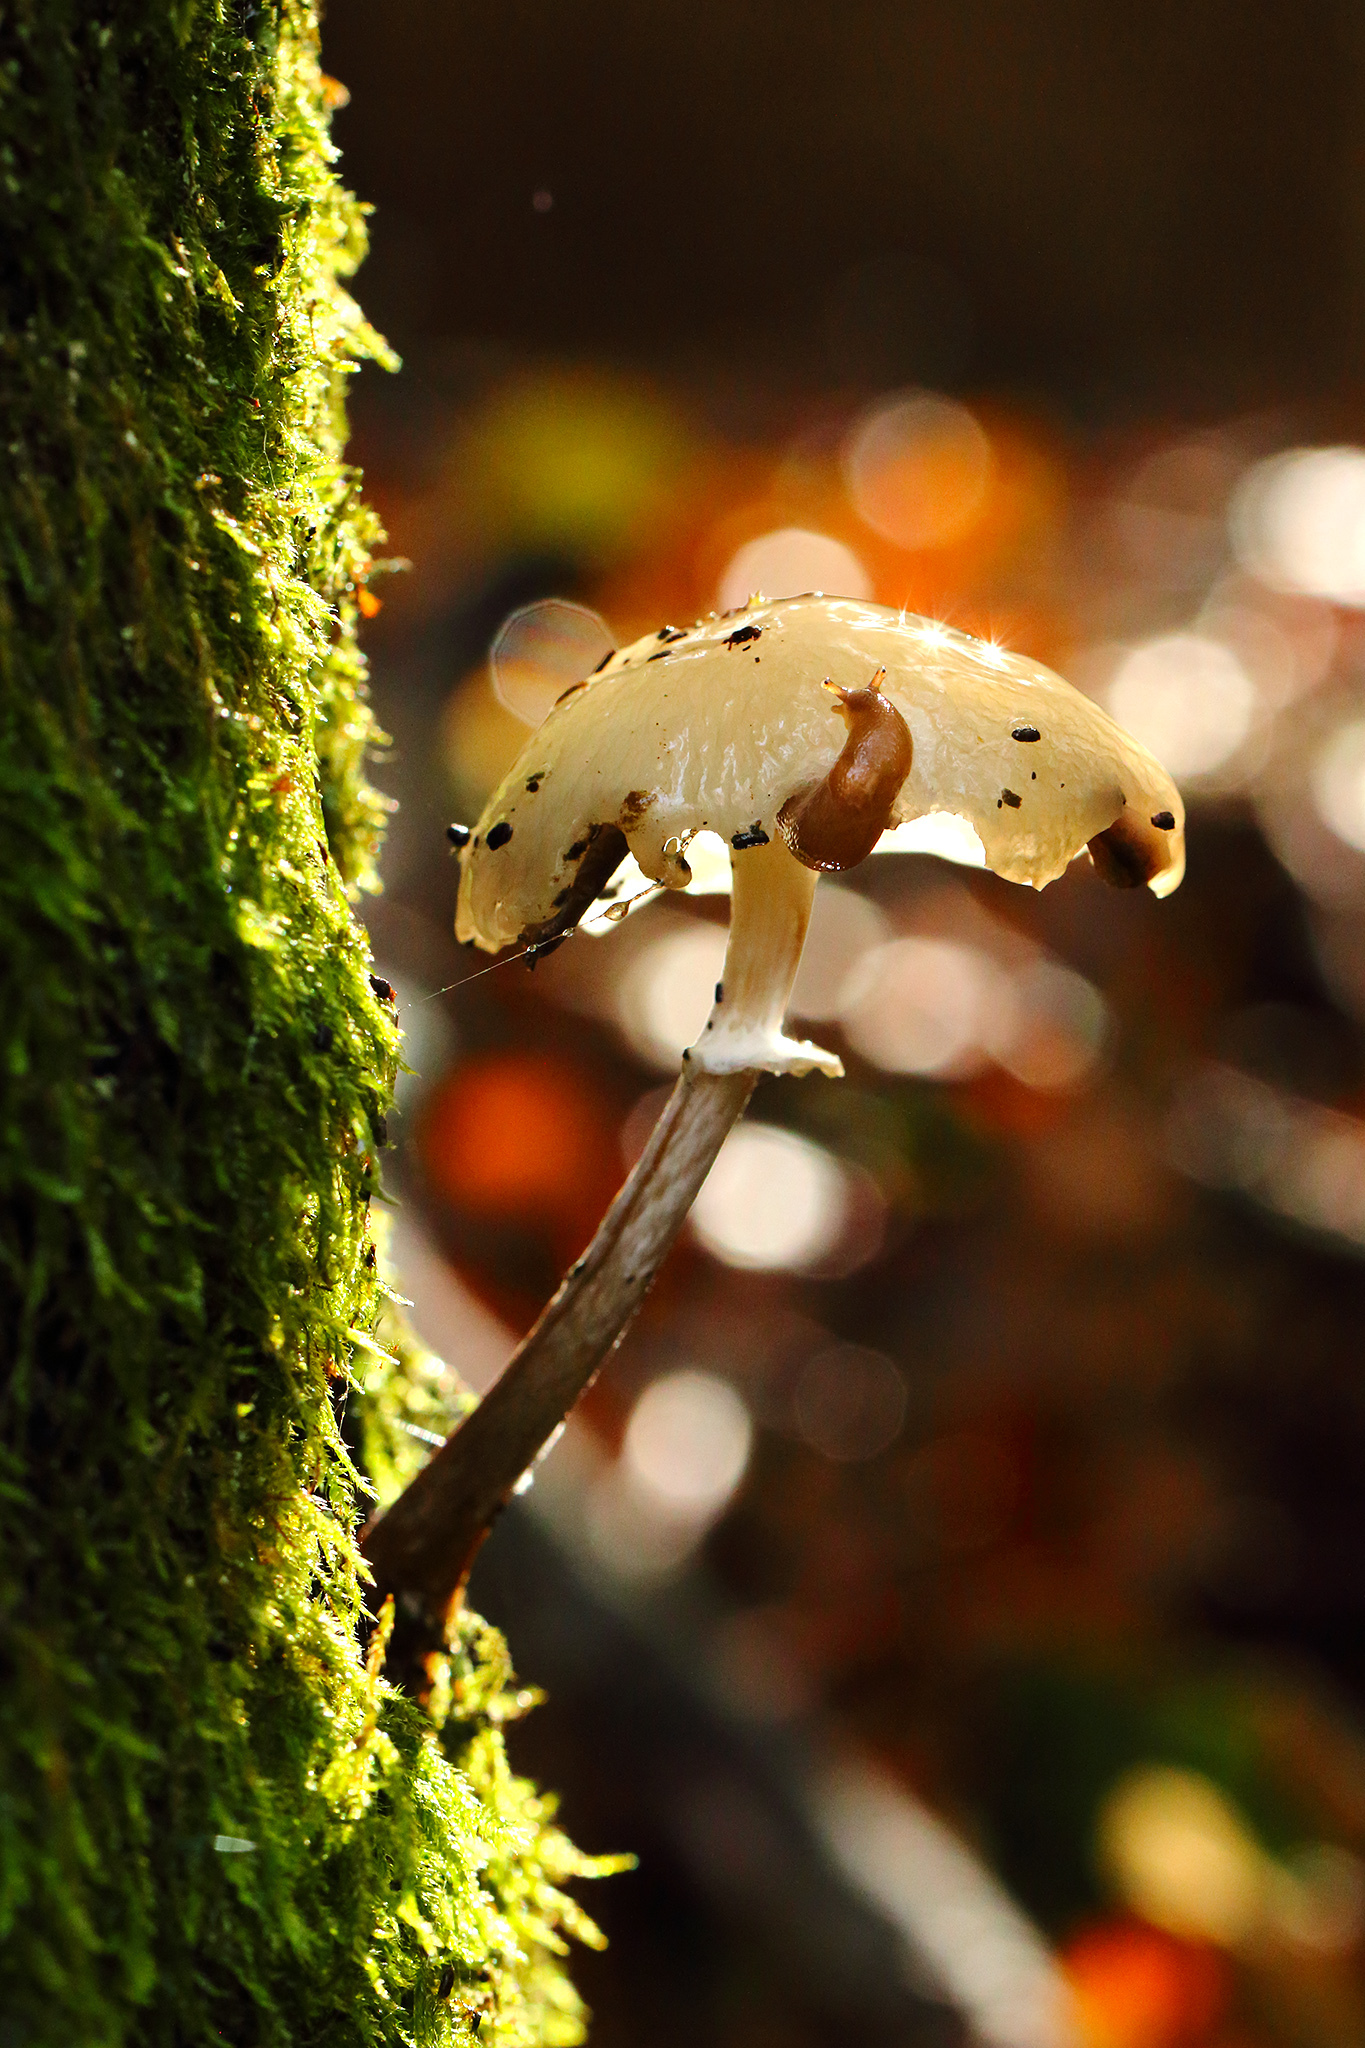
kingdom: Fungi
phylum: Basidiomycota
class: Agaricomycetes
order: Agaricales
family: Physalacriaceae
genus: Mucidula
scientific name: Mucidula mucida
